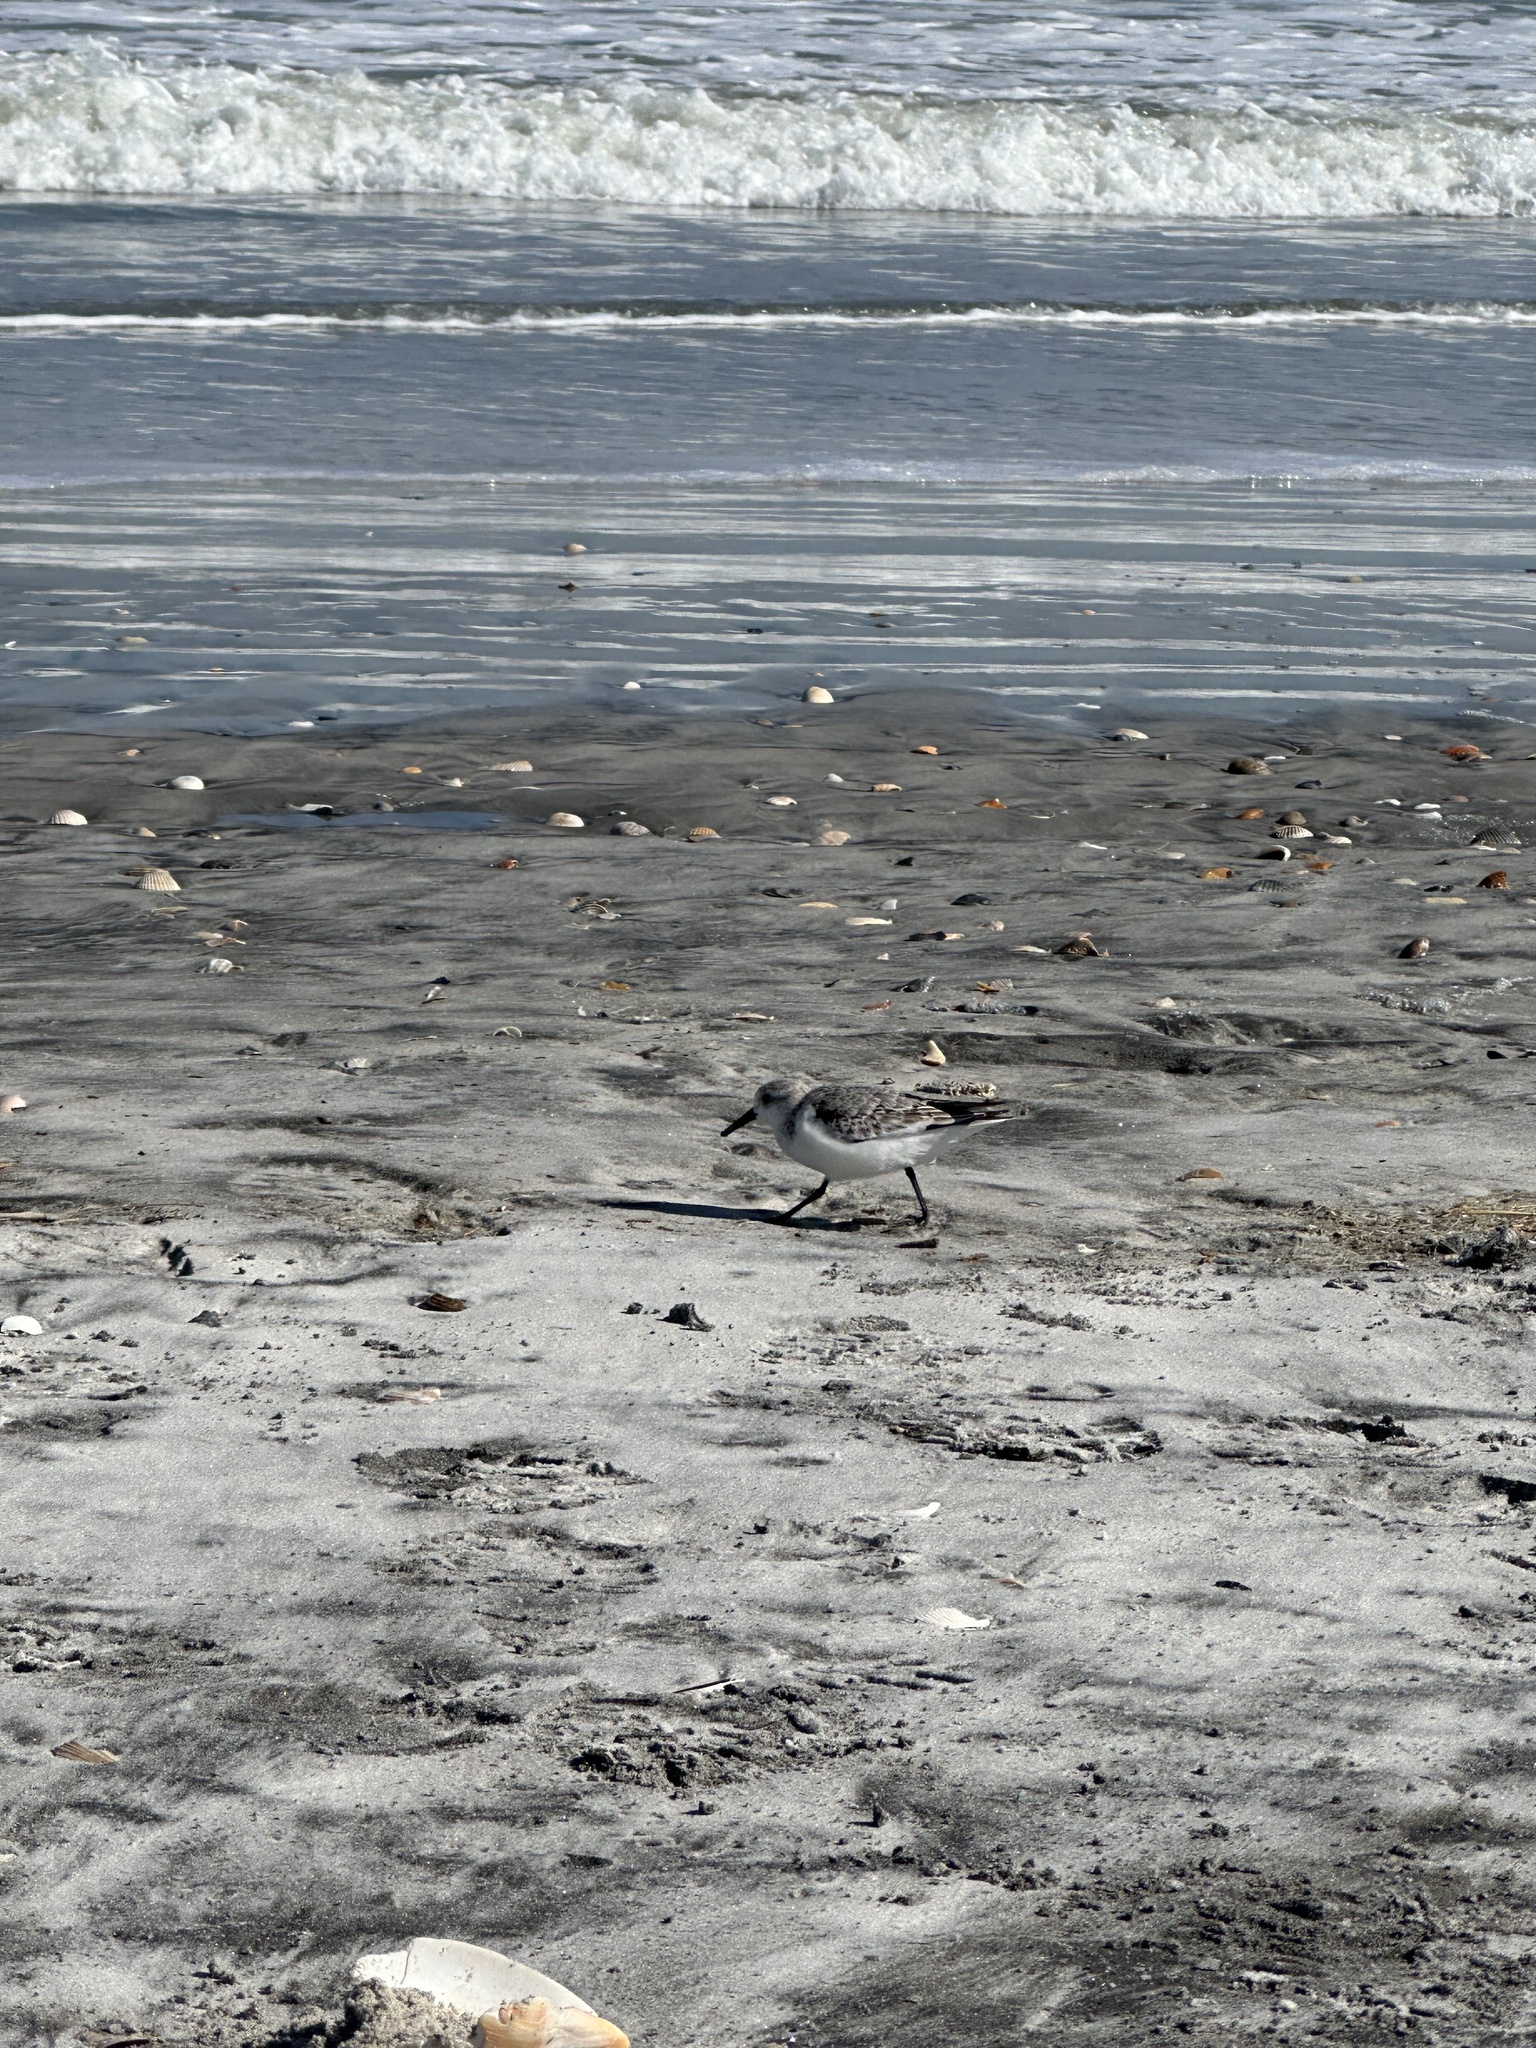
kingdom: Animalia
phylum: Chordata
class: Aves
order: Charadriiformes
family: Scolopacidae
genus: Calidris
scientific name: Calidris alba
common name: Sanderling
